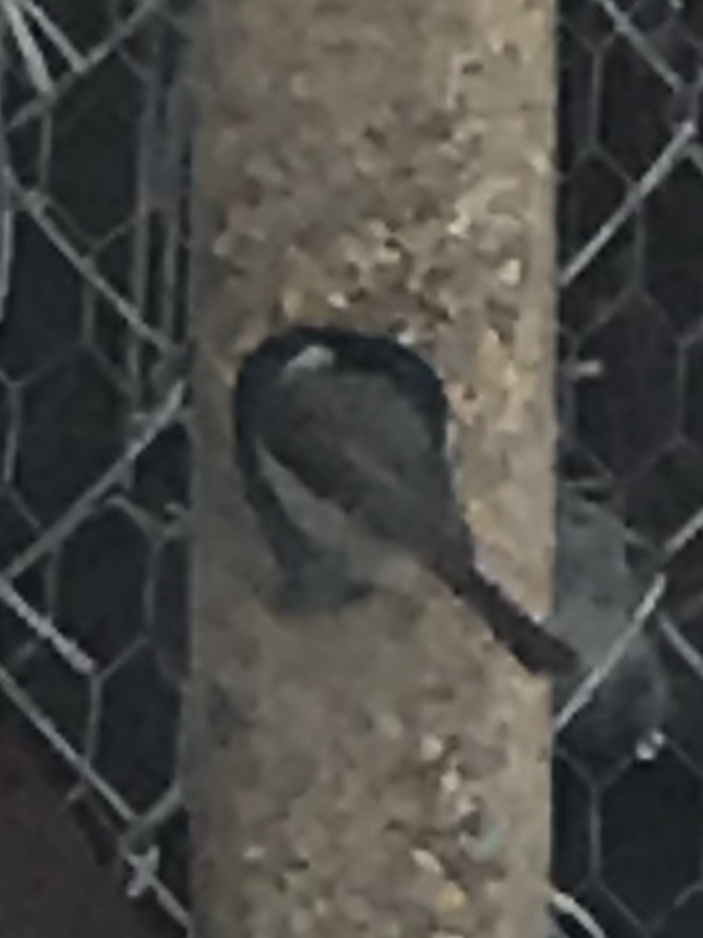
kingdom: Animalia
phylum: Chordata
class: Aves
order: Passeriformes
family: Paridae
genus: Poecile
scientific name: Poecile carolinensis
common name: Carolina chickadee
